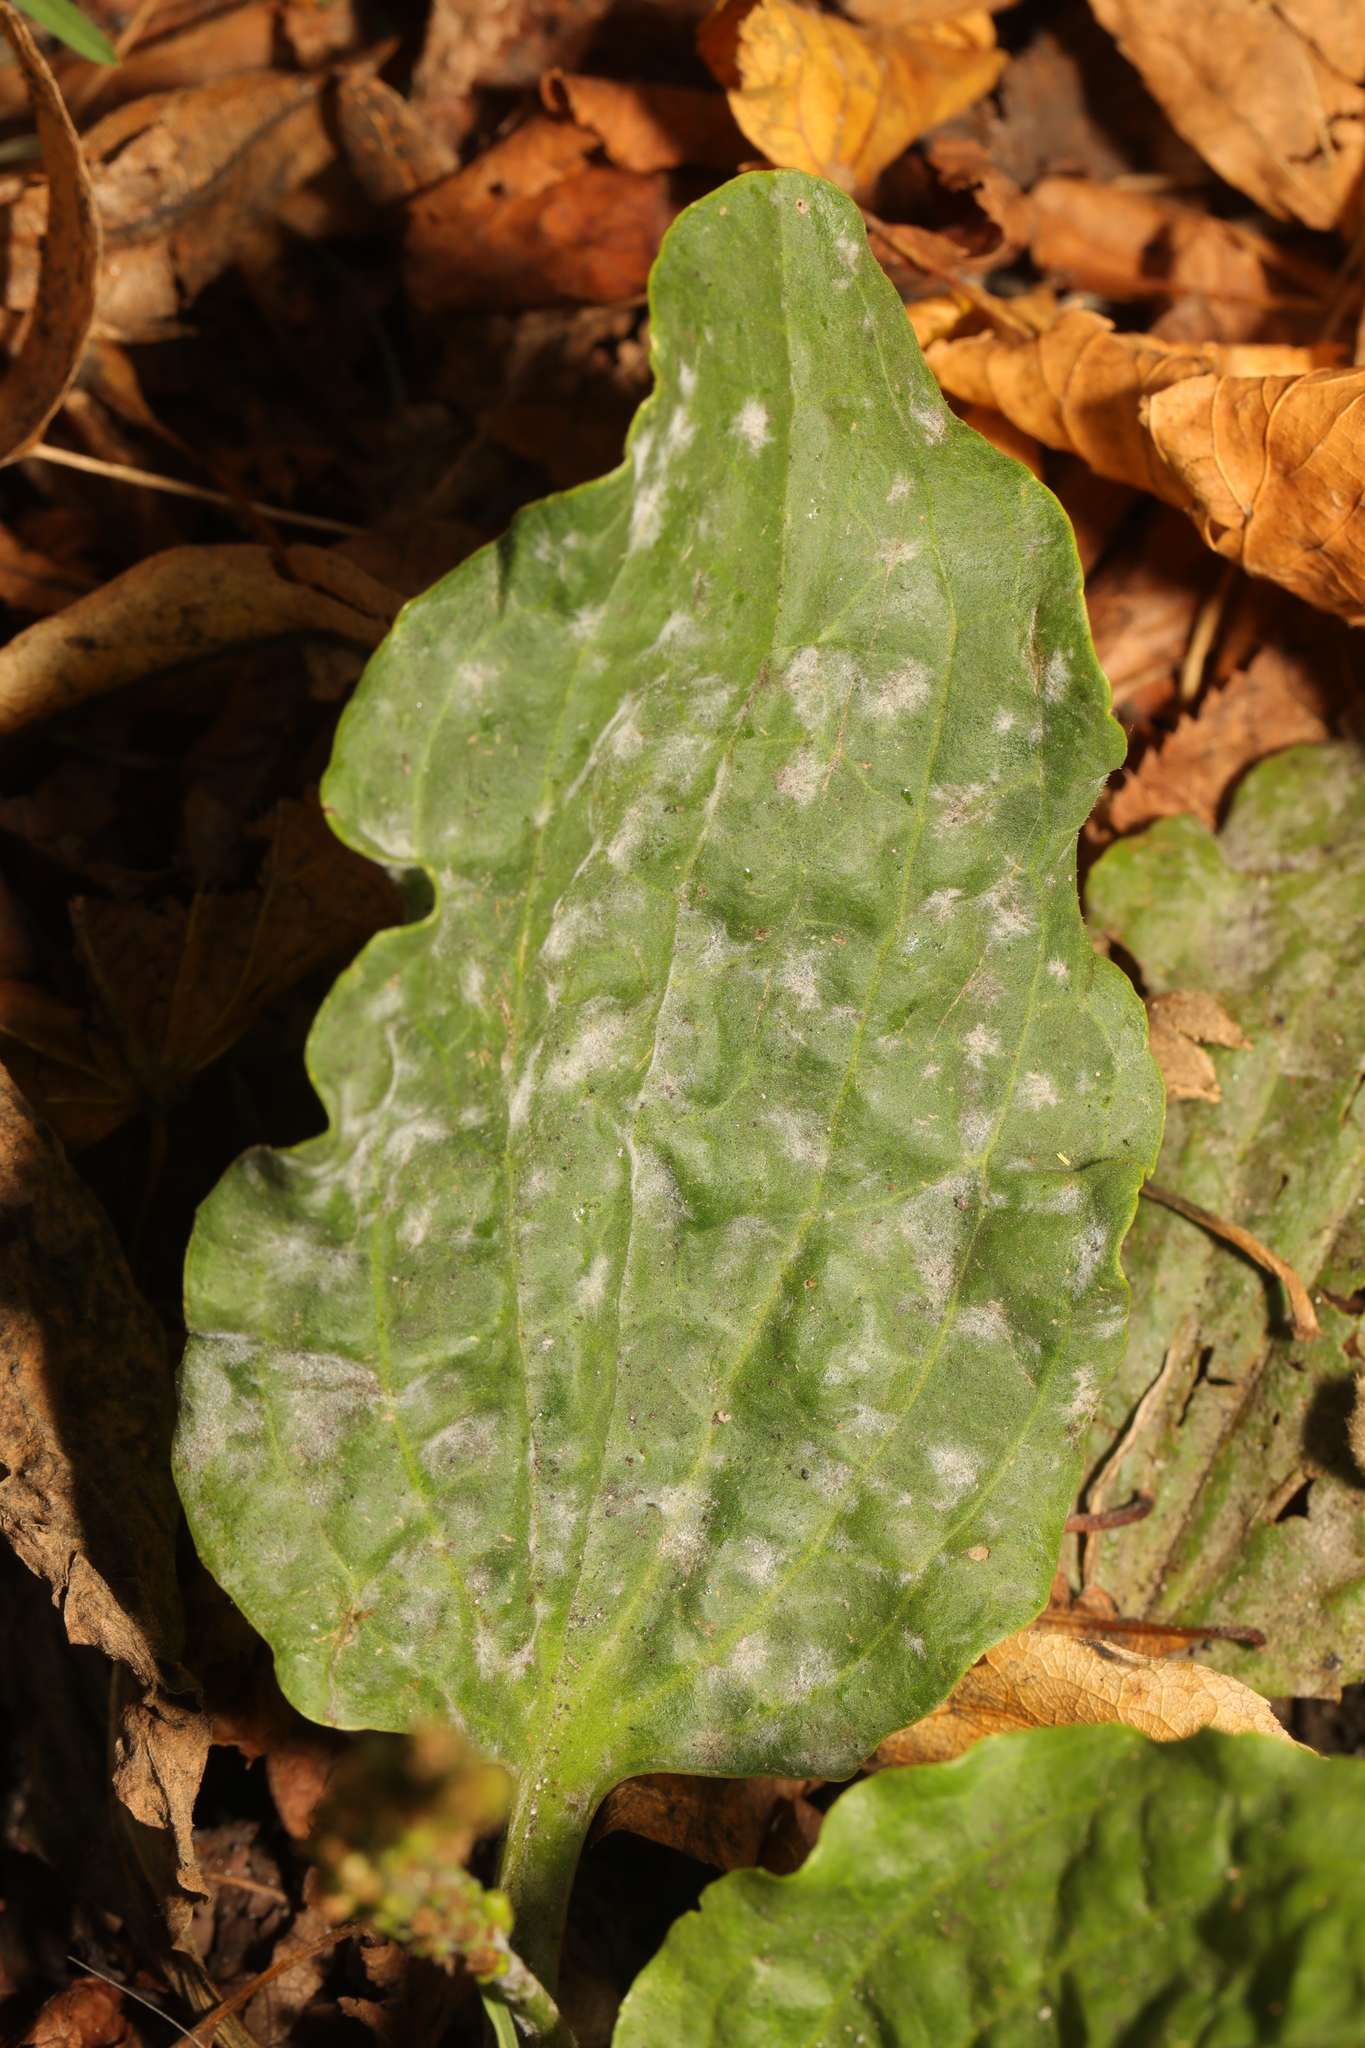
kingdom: Fungi
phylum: Ascomycota
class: Leotiomycetes
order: Helotiales
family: Erysiphaceae
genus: Golovinomyces
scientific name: Golovinomyces sordidus
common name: Plantain mildew
